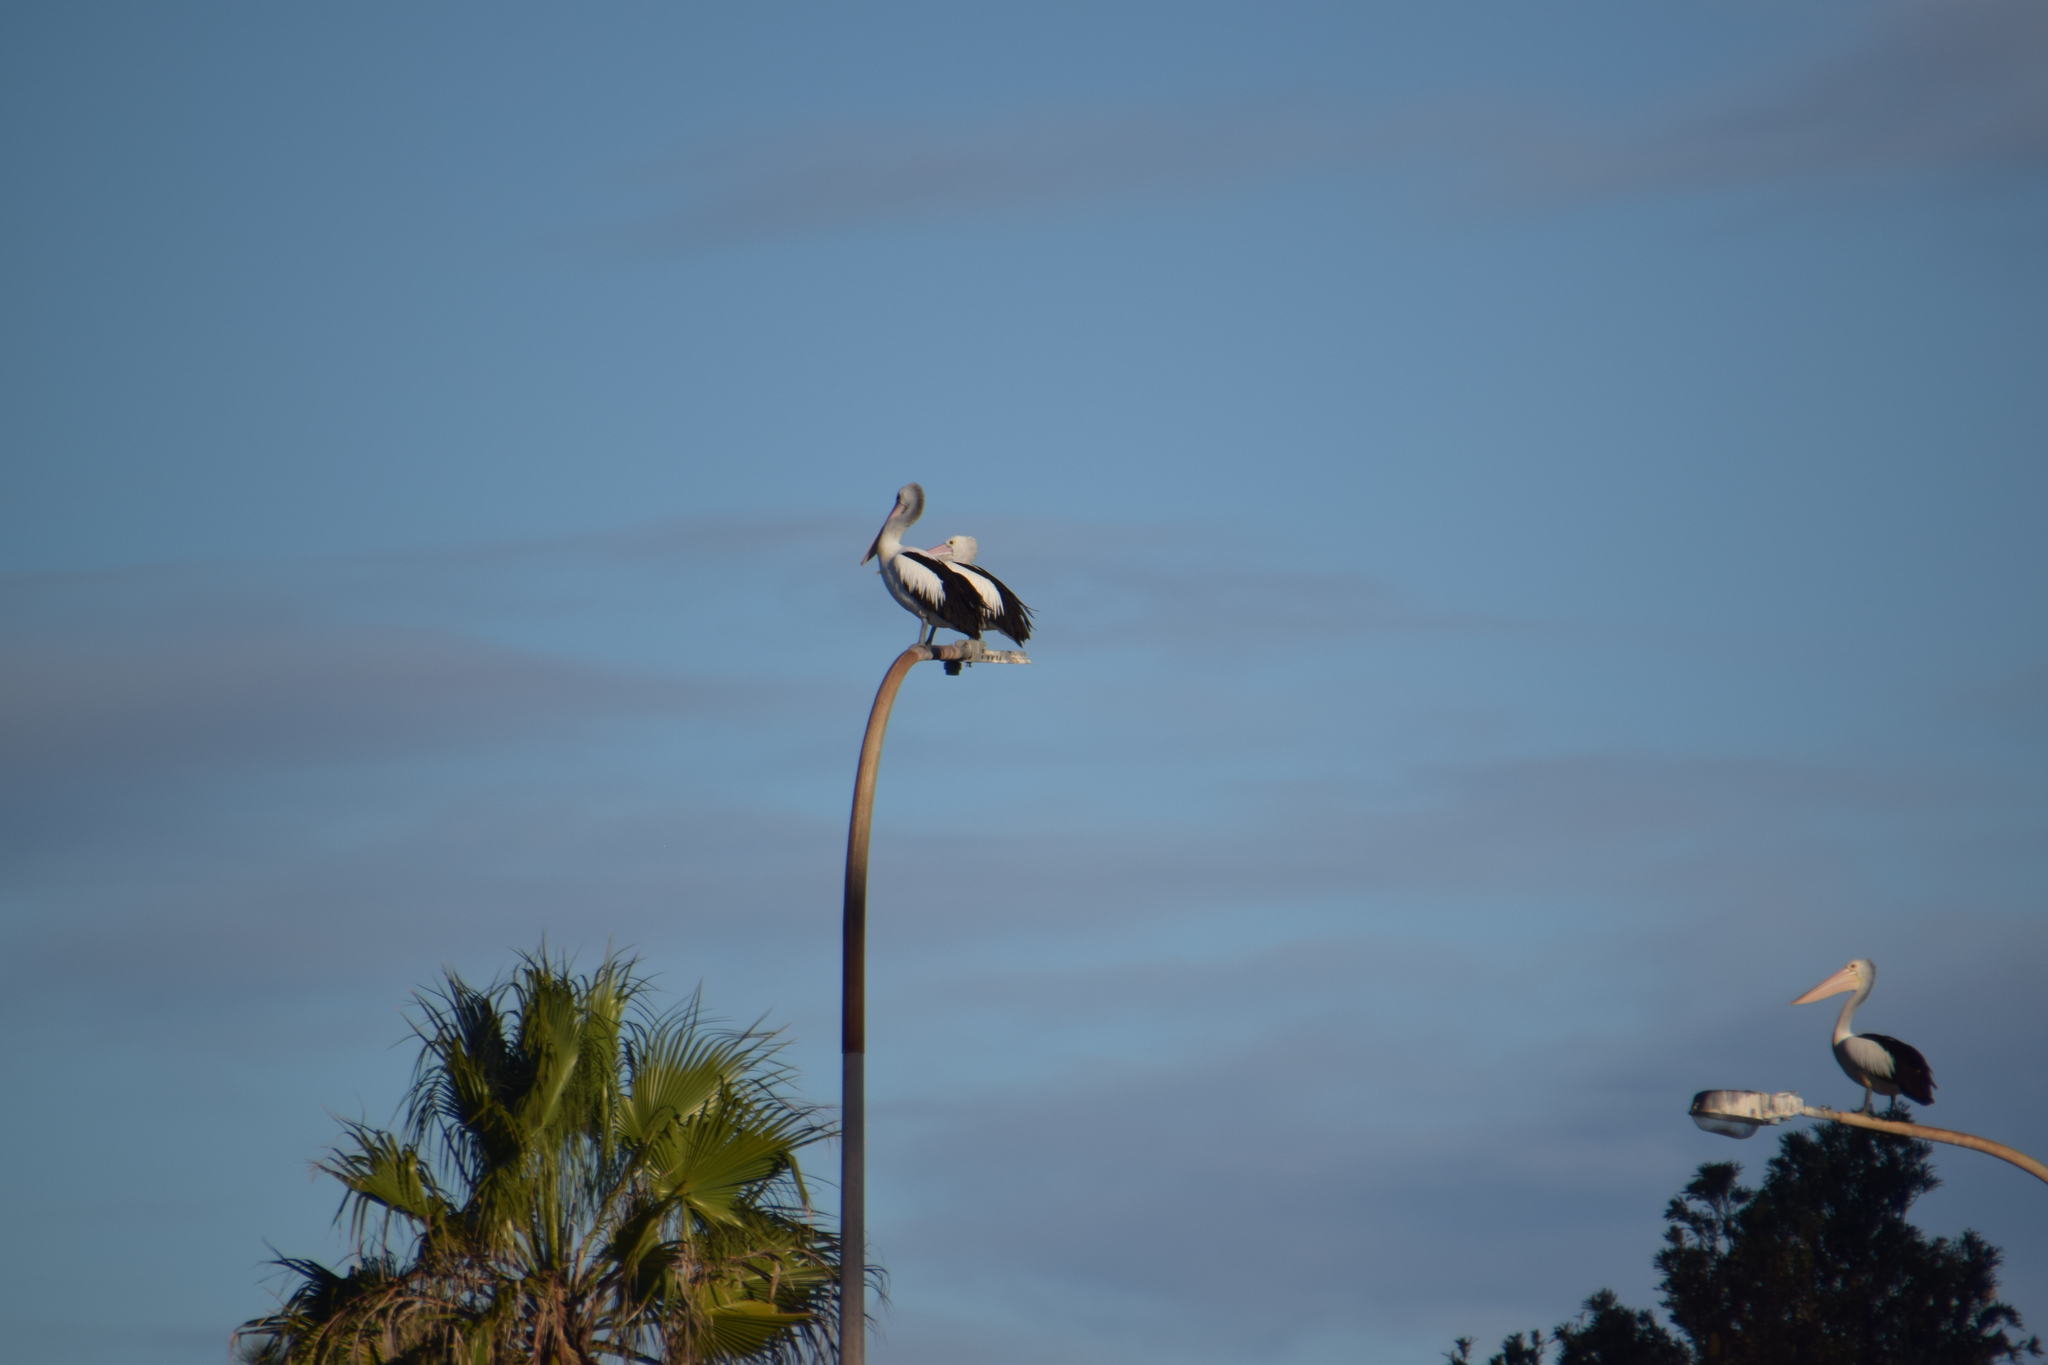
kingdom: Animalia
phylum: Chordata
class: Aves
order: Pelecaniformes
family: Pelecanidae
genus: Pelecanus
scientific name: Pelecanus conspicillatus
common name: Australian pelican
